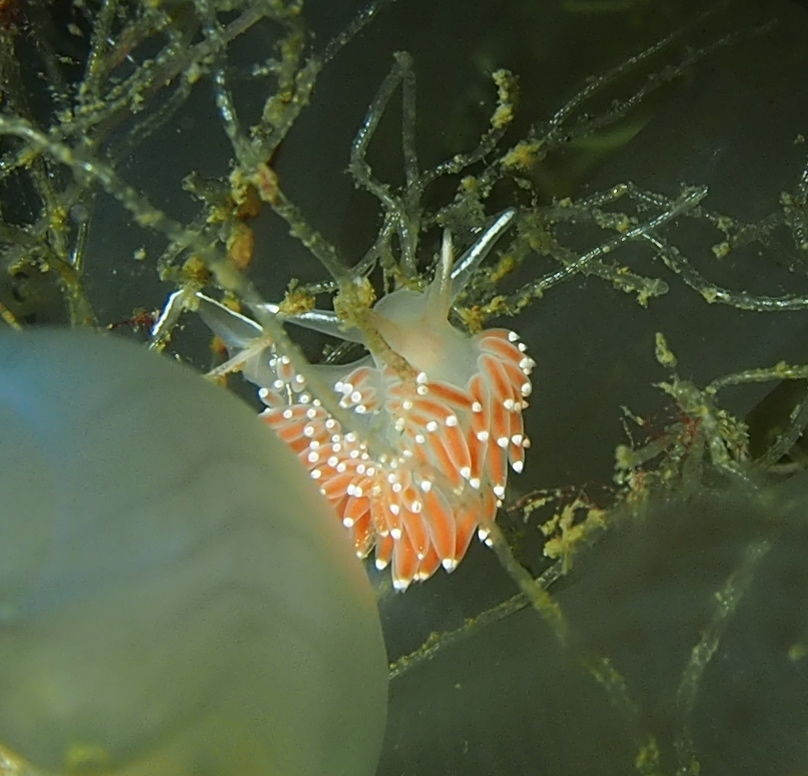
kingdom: Animalia
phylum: Mollusca
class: Gastropoda
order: Nudibranchia
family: Coryphellidae
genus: Coryphella
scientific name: Coryphella verrucosa
